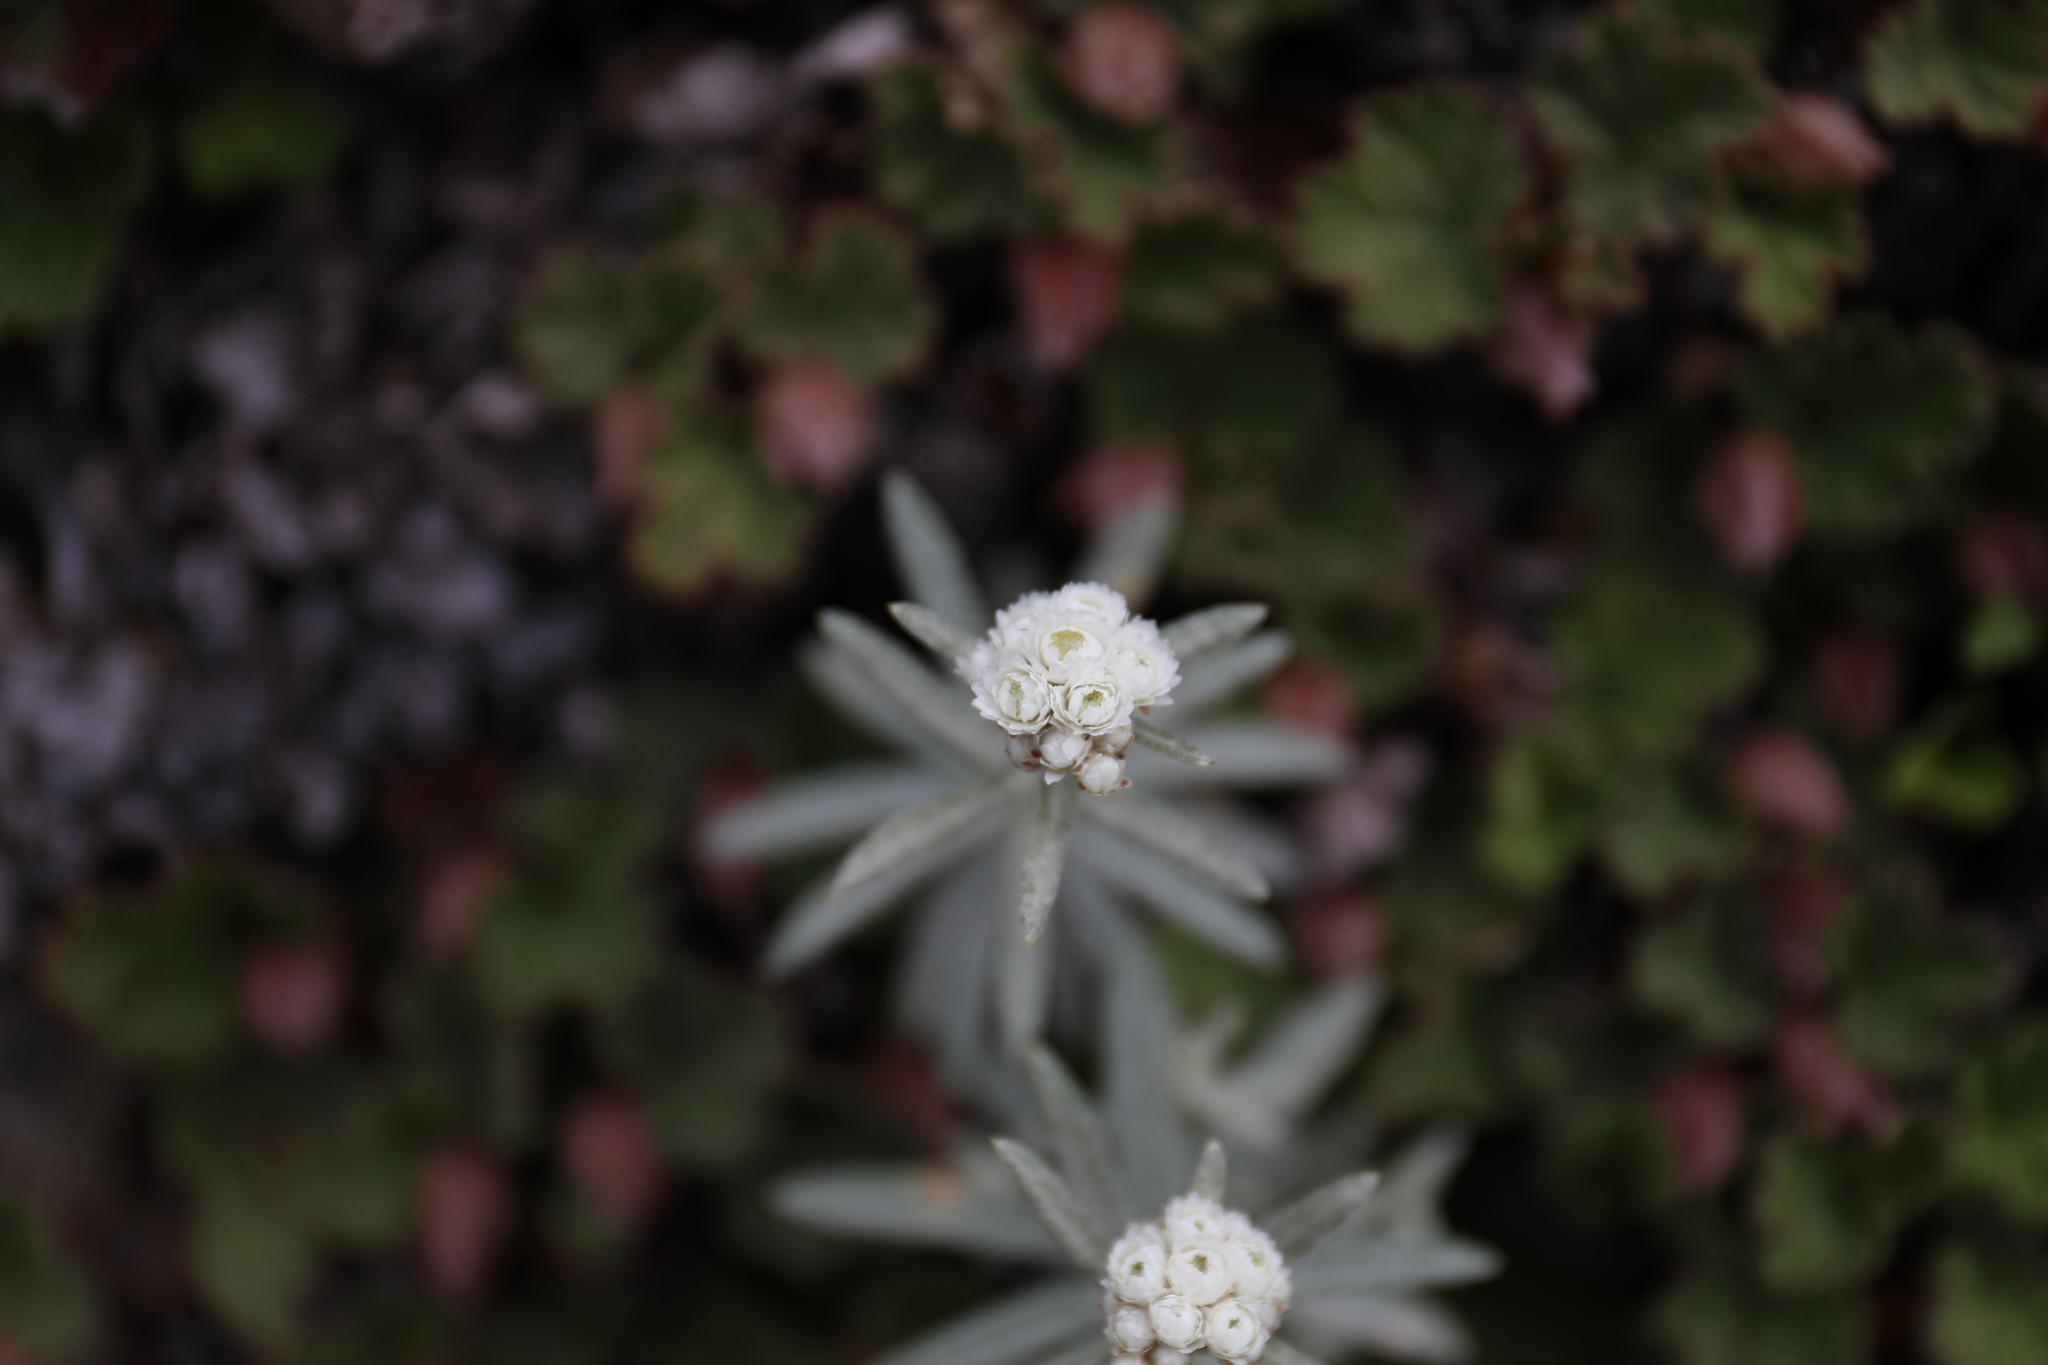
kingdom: Plantae
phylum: Tracheophyta
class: Magnoliopsida
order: Asterales
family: Asteraceae
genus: Anaphalis
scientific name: Anaphalis morrisonicola
